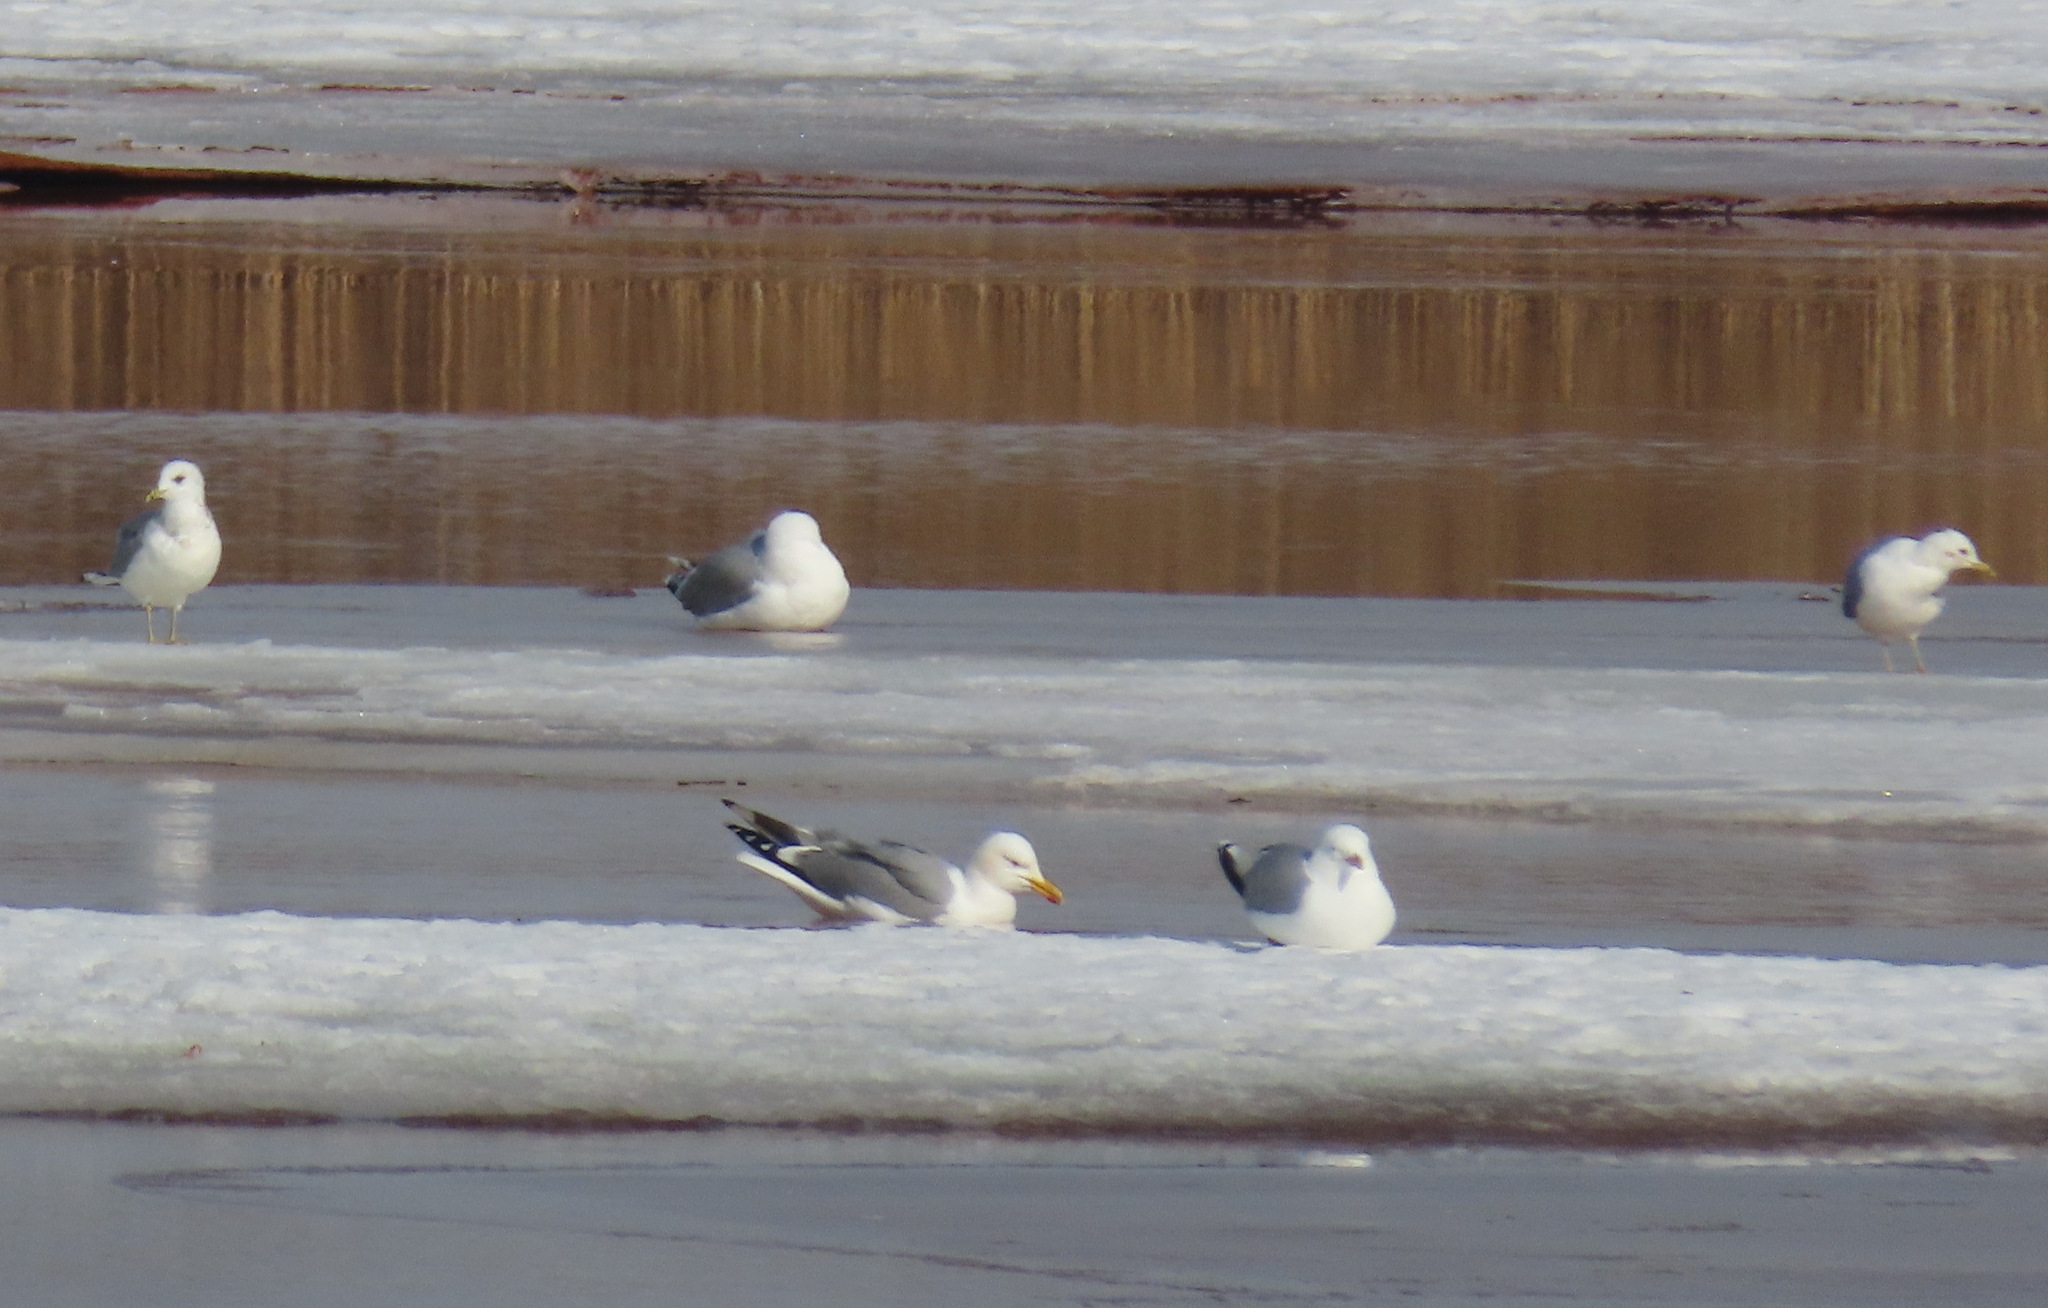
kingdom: Animalia
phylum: Chordata
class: Aves
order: Charadriiformes
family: Laridae
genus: Larus
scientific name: Larus canus
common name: Mew gull
